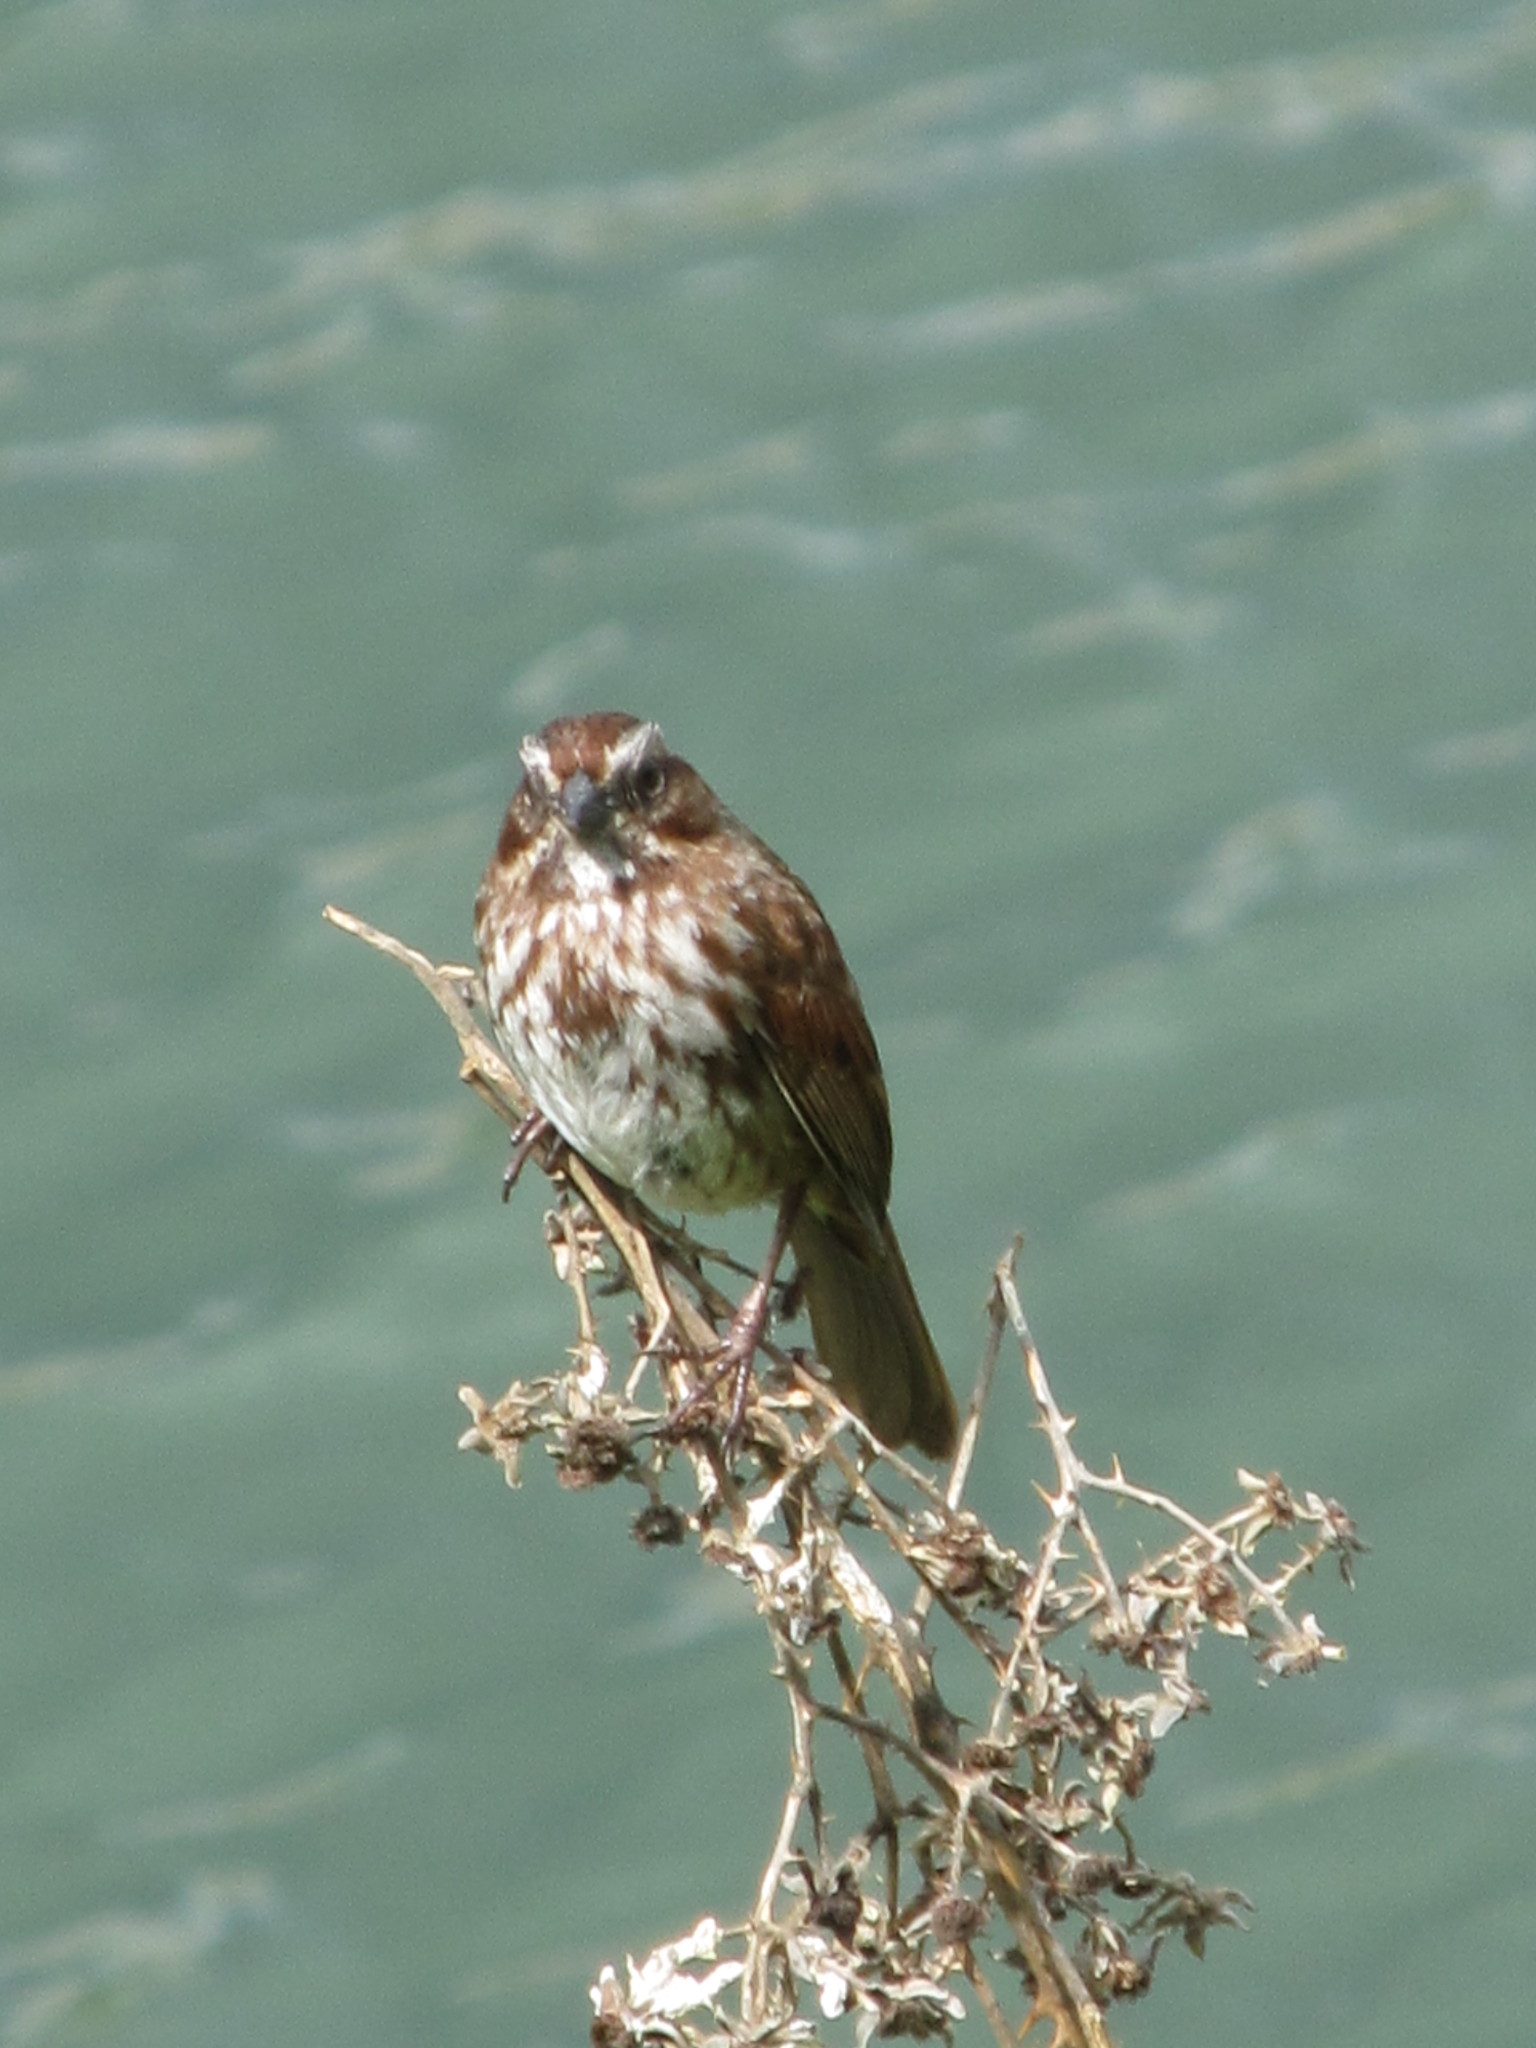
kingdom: Animalia
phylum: Chordata
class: Aves
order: Passeriformes
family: Passerellidae
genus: Melospiza
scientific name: Melospiza melodia
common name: Song sparrow
